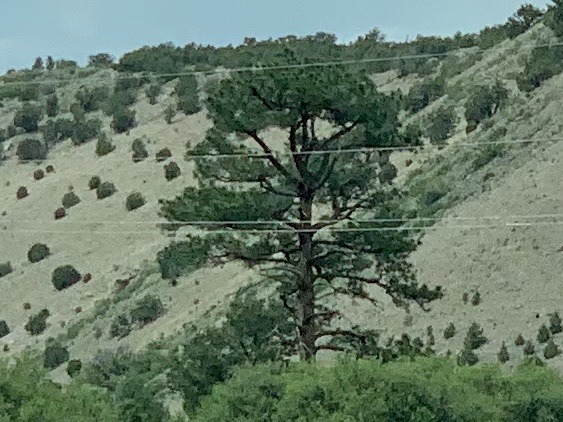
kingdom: Plantae
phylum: Tracheophyta
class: Pinopsida
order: Pinales
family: Pinaceae
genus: Pinus
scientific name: Pinus ponderosa
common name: Western yellow-pine
